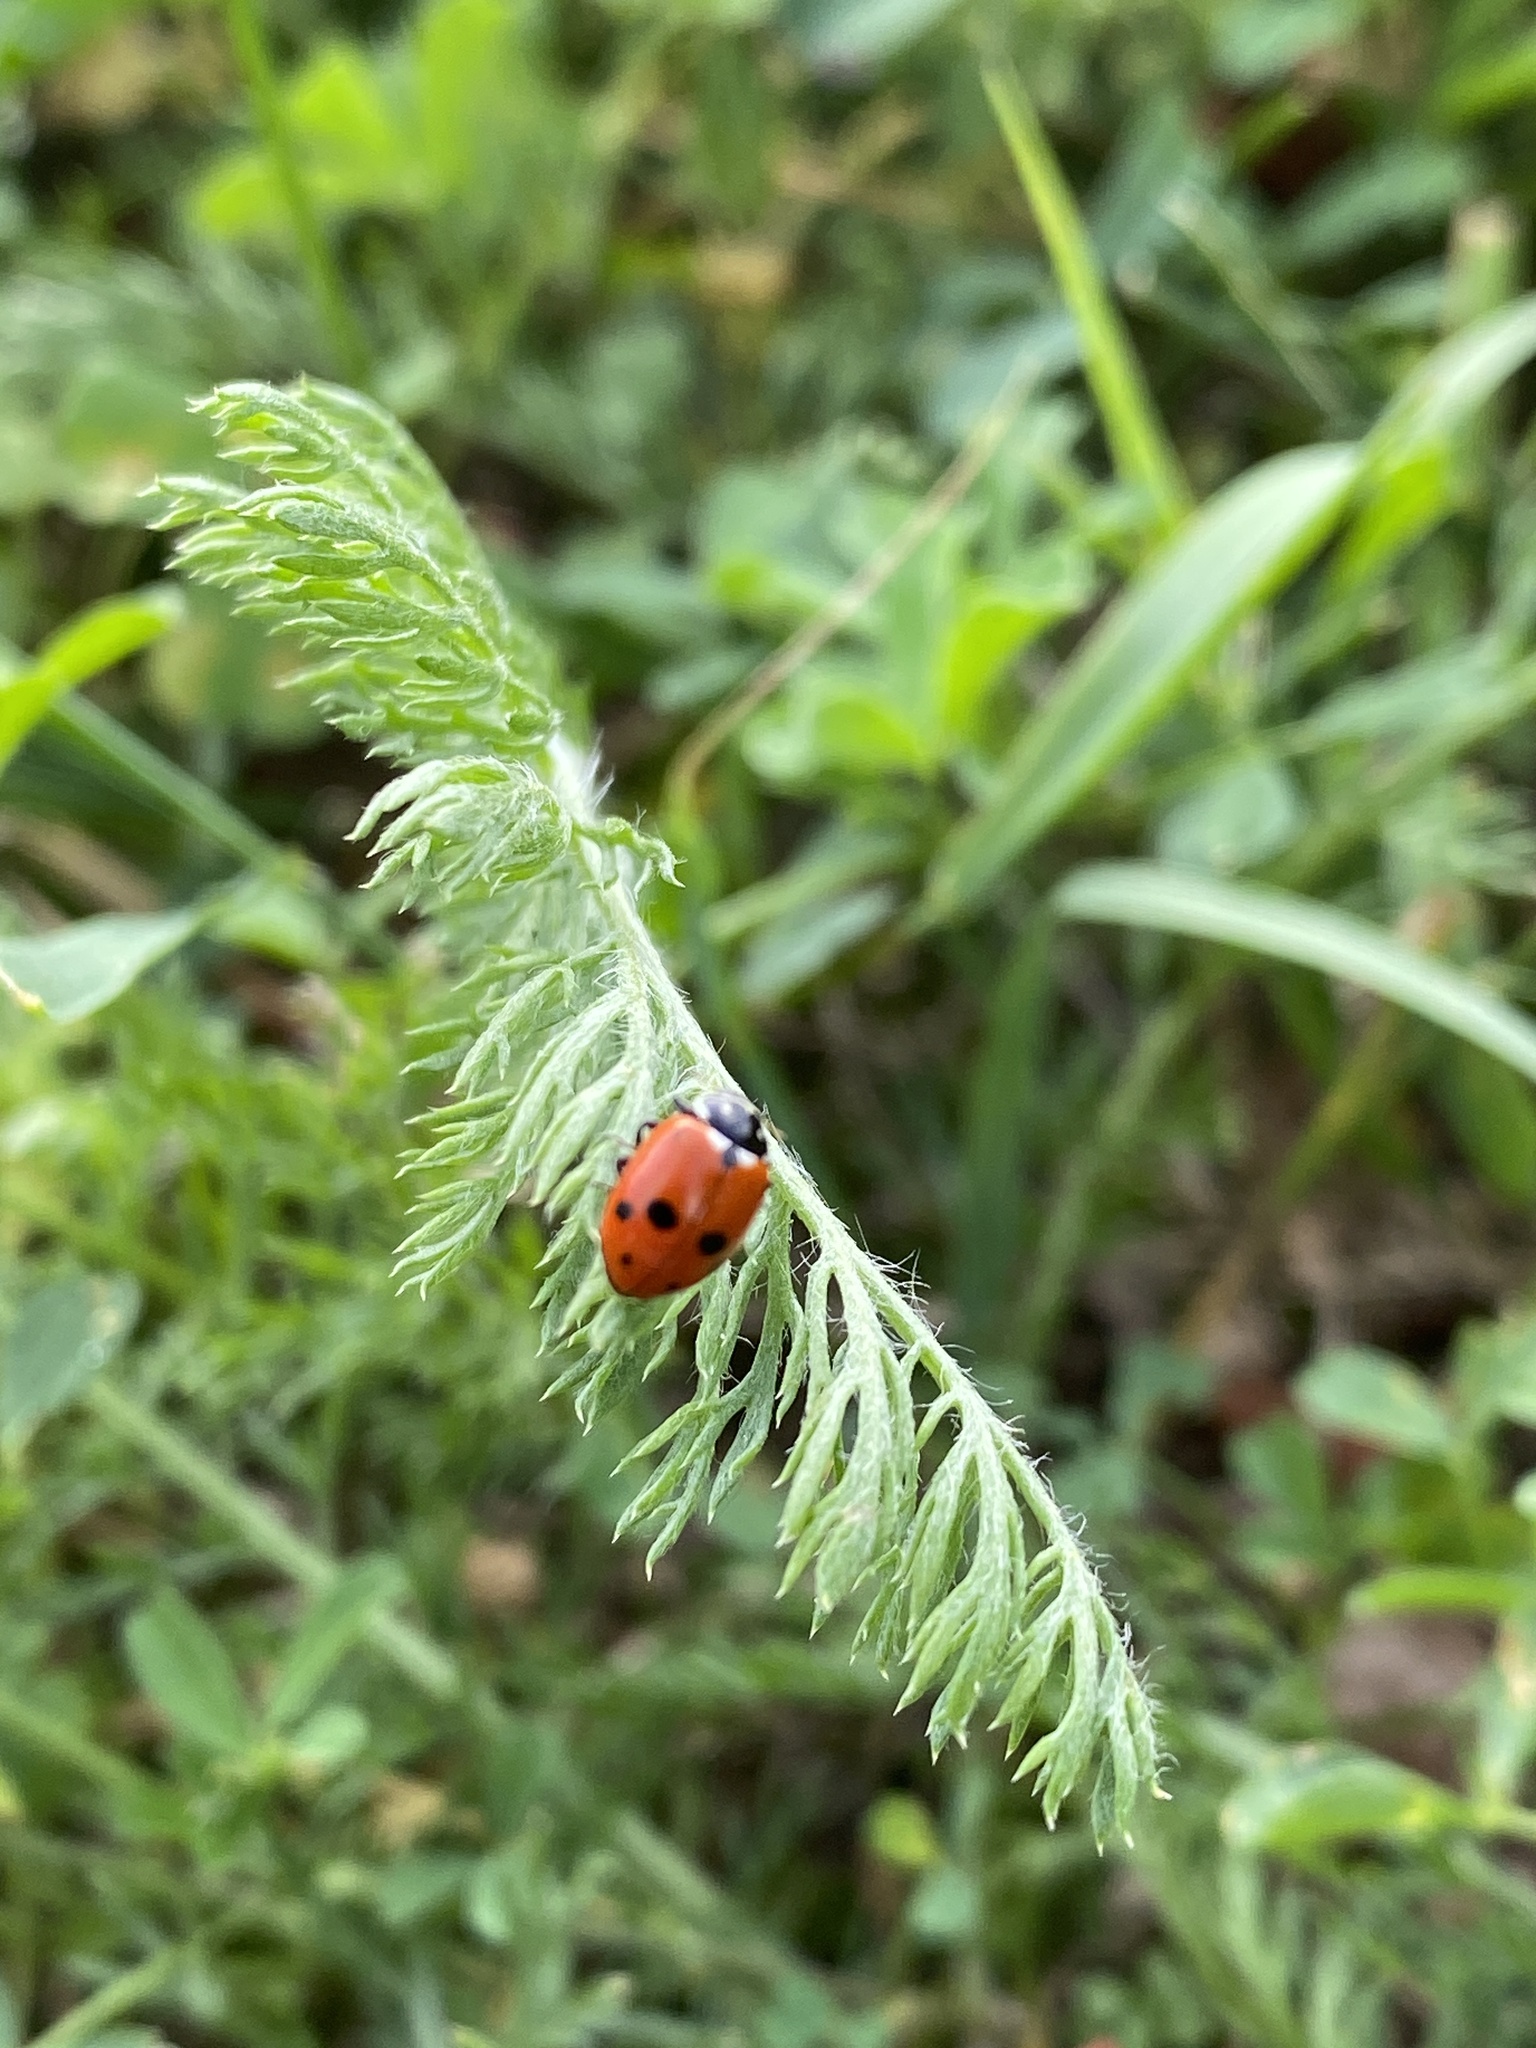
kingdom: Animalia
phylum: Arthropoda
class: Insecta
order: Coleoptera
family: Coccinellidae
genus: Hippodamia
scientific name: Hippodamia variegata
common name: Ladybird beetle
